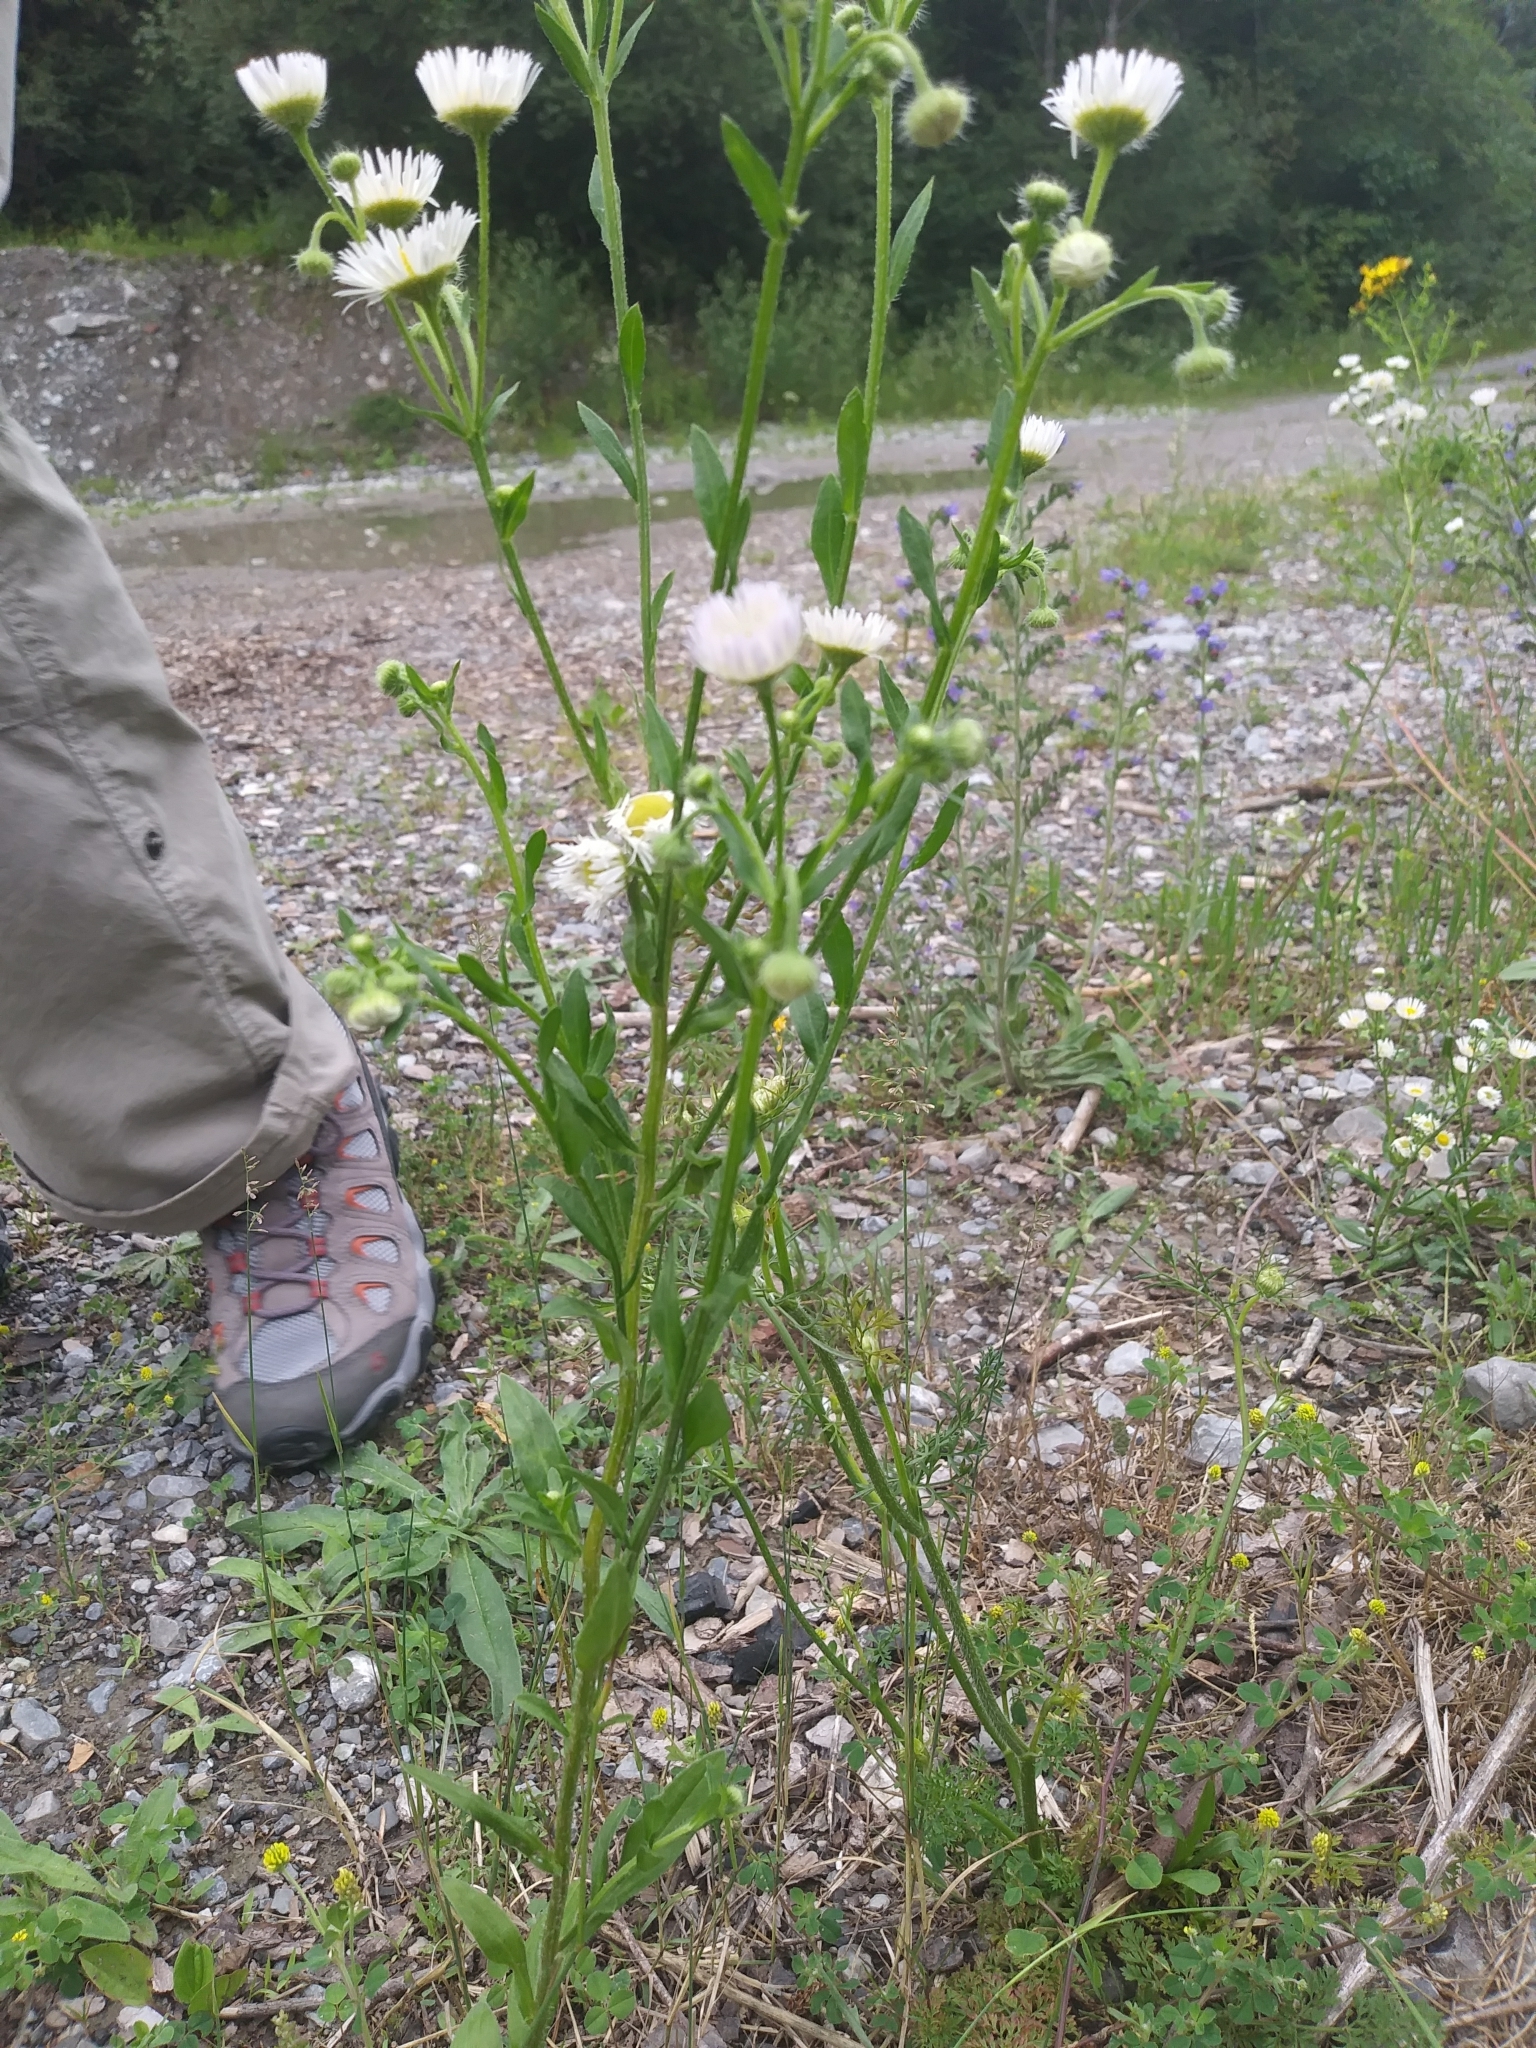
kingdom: Plantae
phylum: Tracheophyta
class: Magnoliopsida
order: Asterales
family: Asteraceae
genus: Erigeron
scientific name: Erigeron annuus
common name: Tall fleabane
